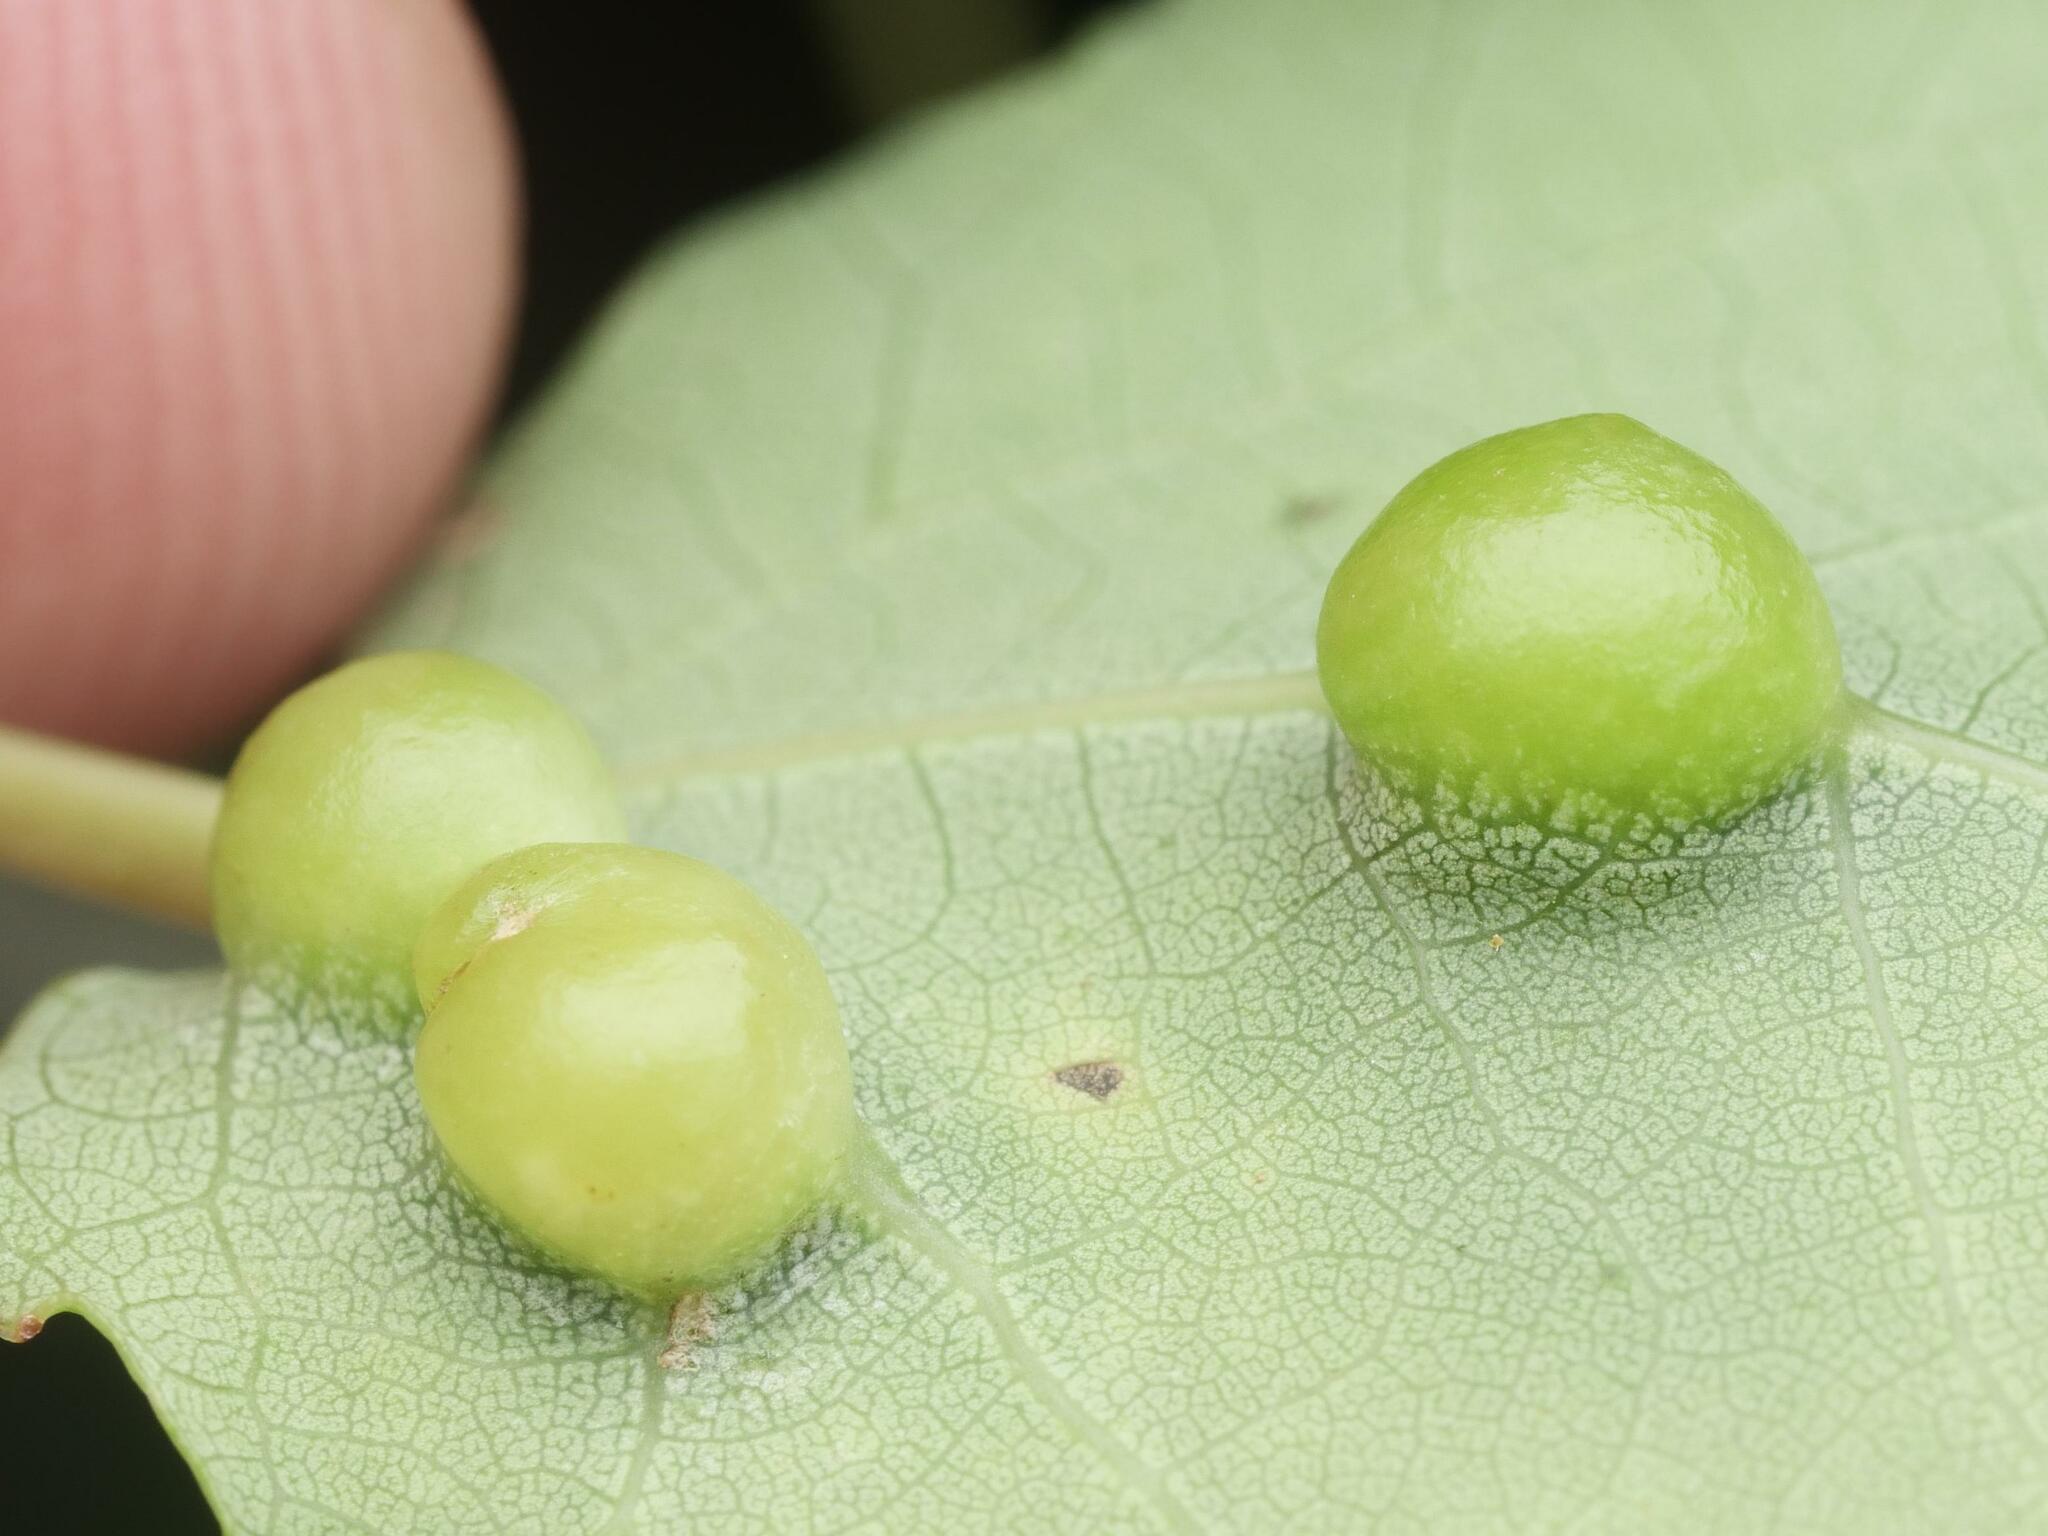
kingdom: Animalia
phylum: Arthropoda
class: Insecta
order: Diptera
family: Cecidomyiidae
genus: Harmandiola
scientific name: Harmandiola cavernosa
